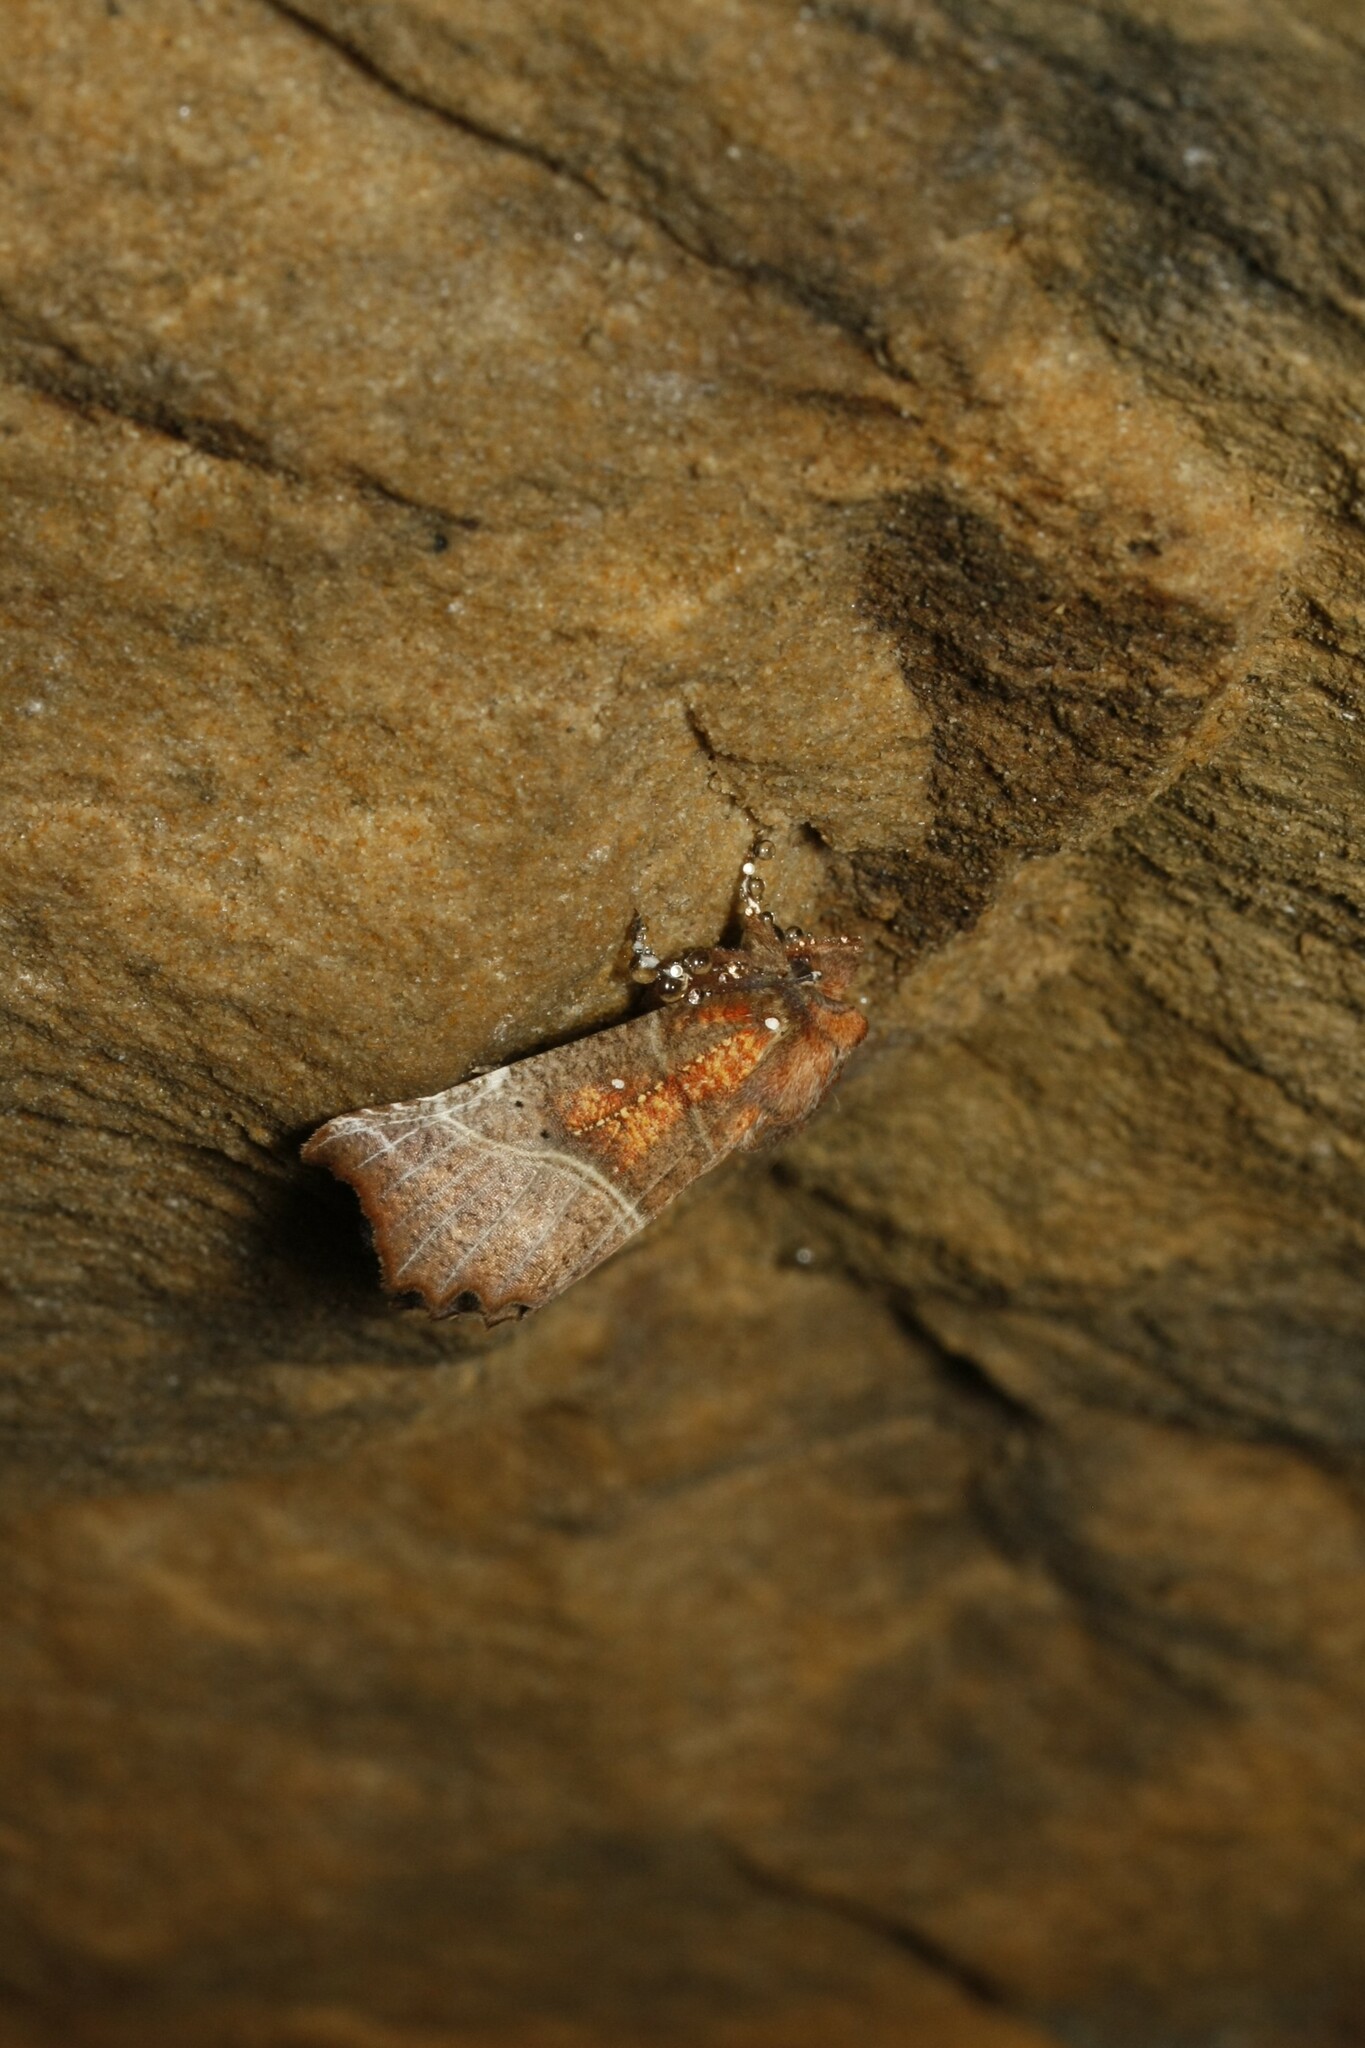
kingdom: Animalia
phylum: Arthropoda
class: Insecta
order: Lepidoptera
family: Erebidae
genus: Scoliopteryx
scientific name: Scoliopteryx libatrix
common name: Herald
